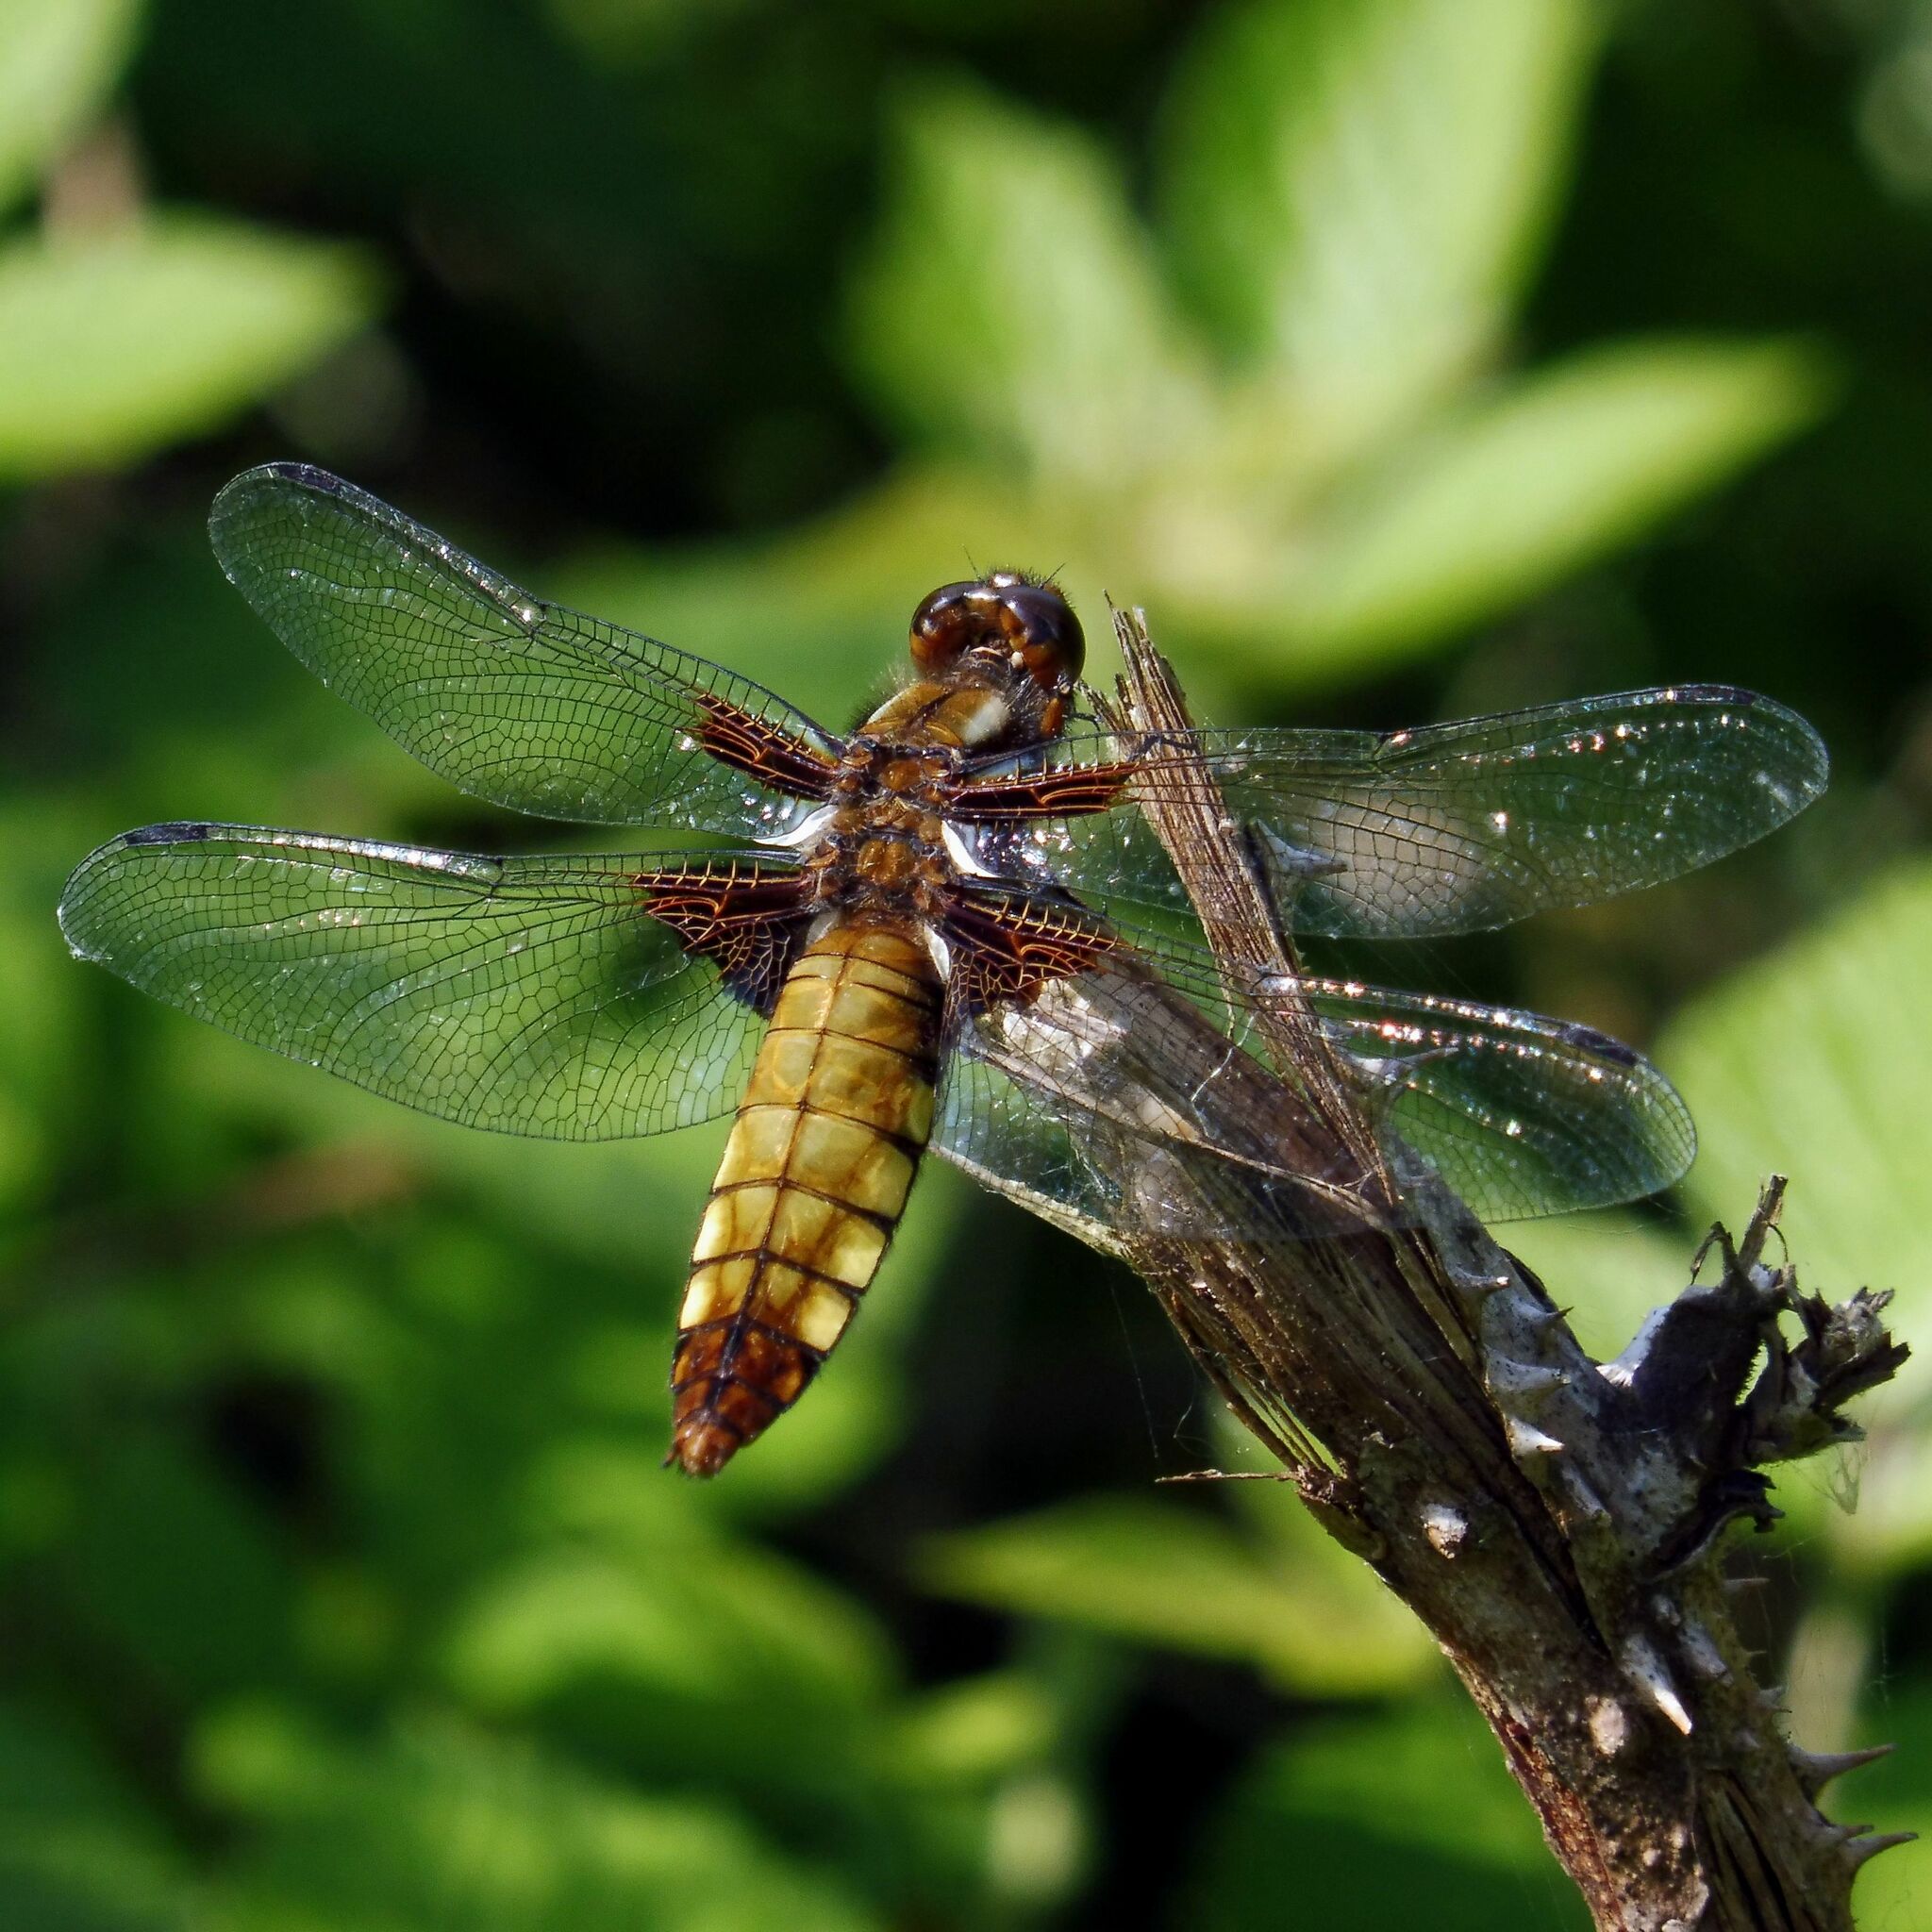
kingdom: Animalia
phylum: Arthropoda
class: Insecta
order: Odonata
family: Libellulidae
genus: Libellula
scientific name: Libellula depressa
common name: Broad-bodied chaser
